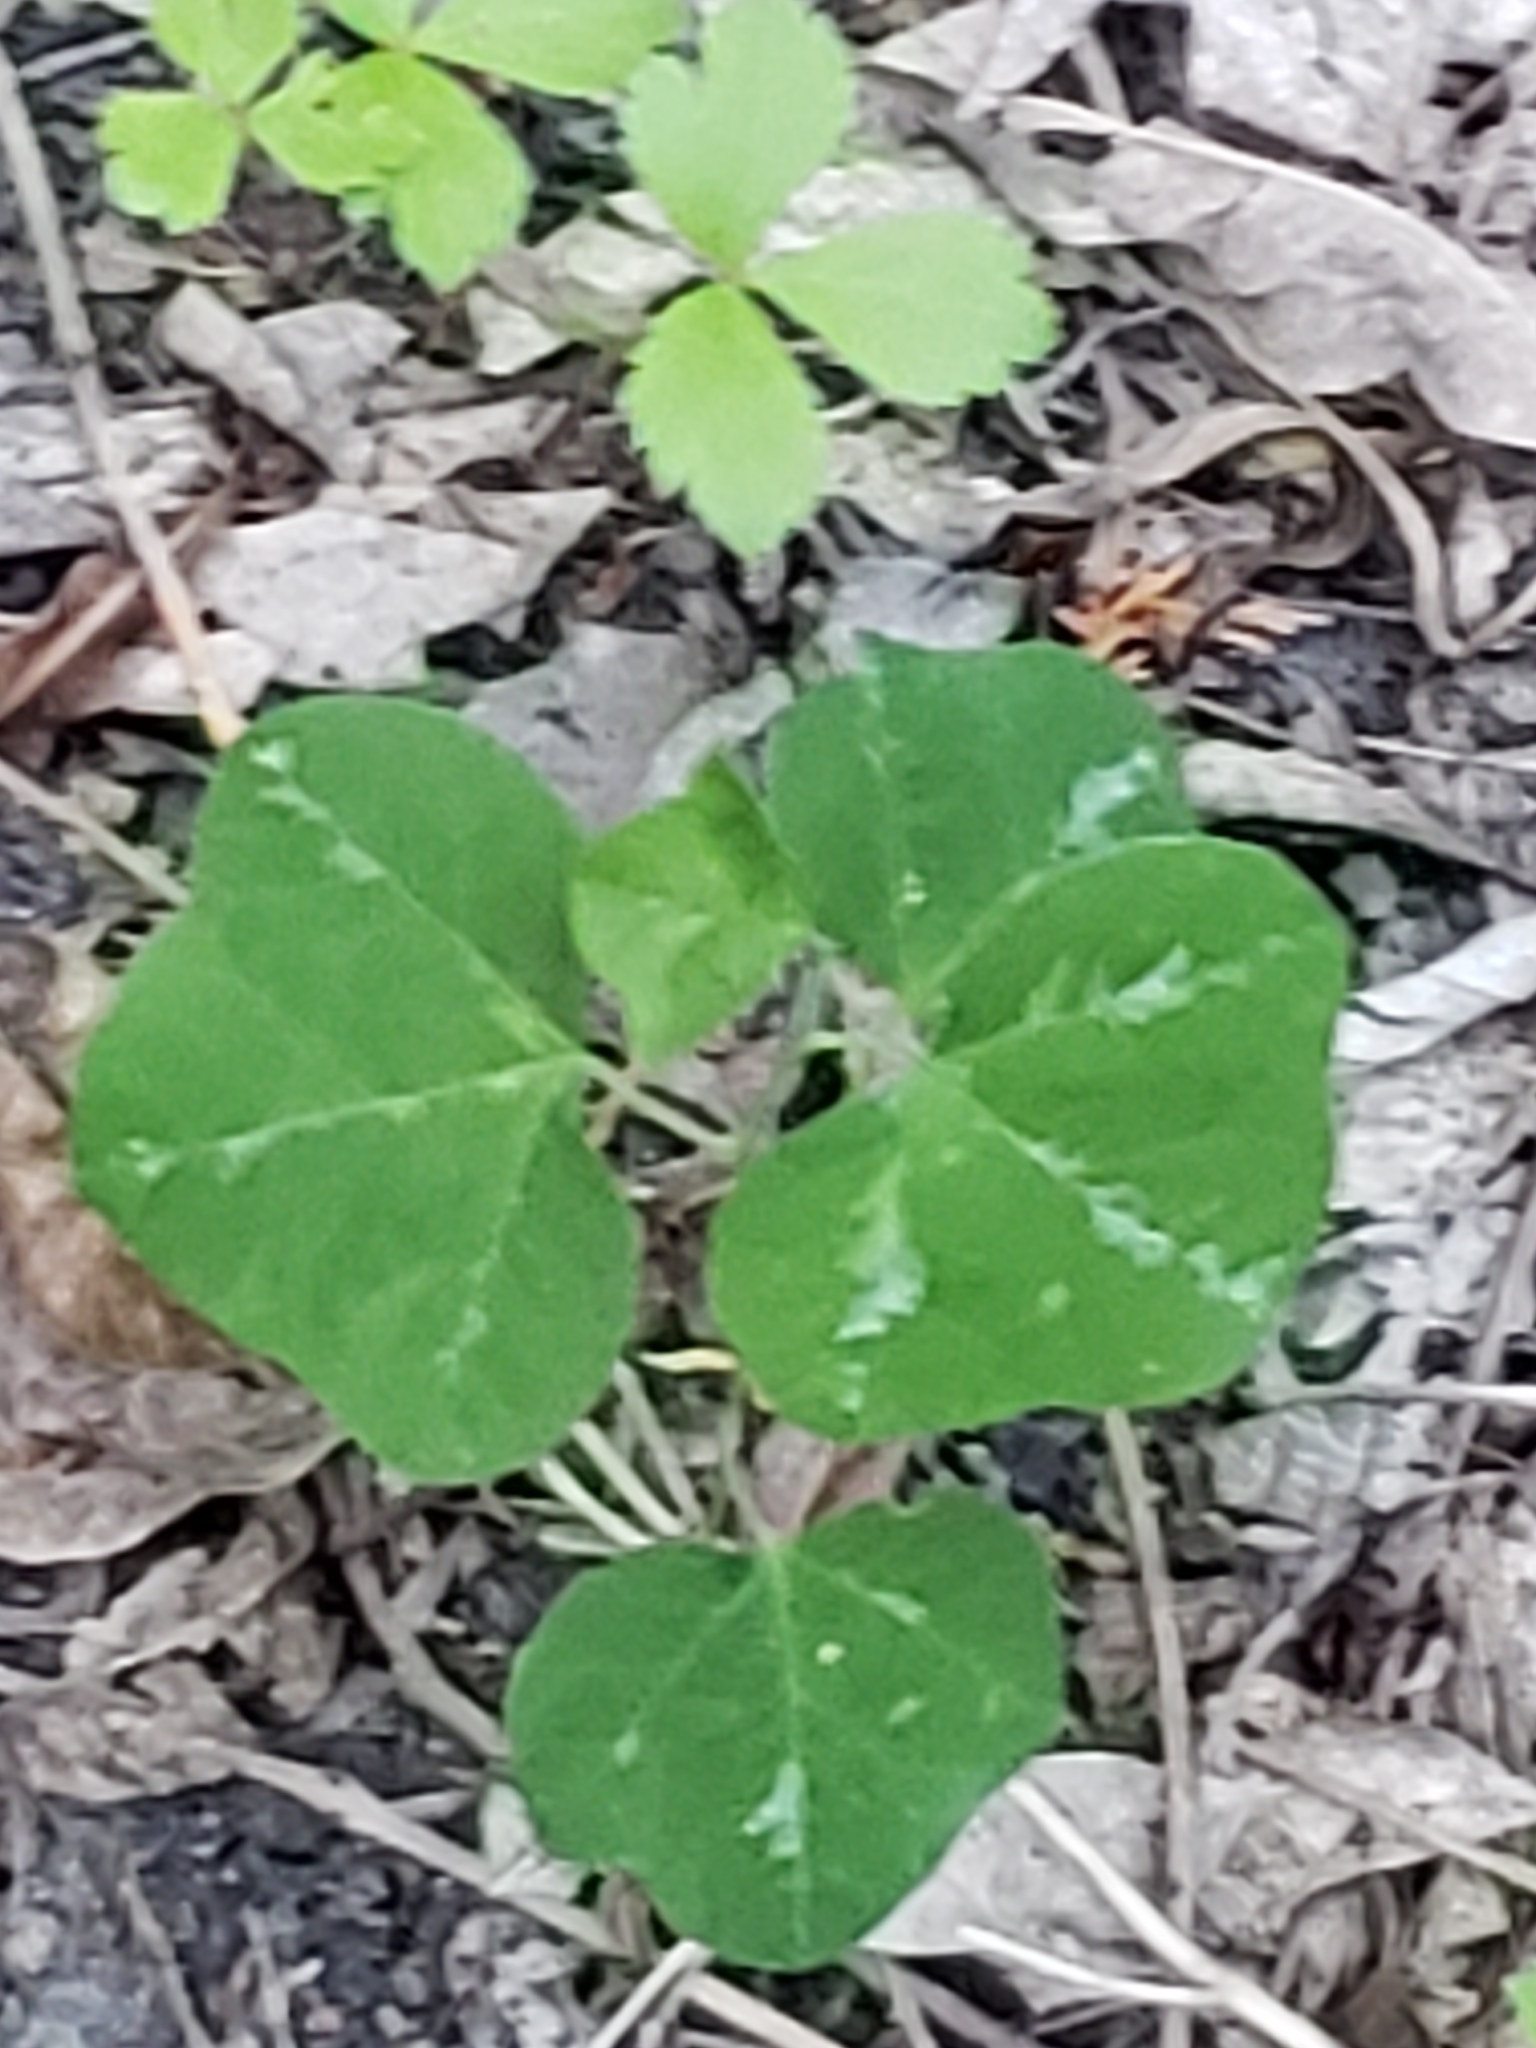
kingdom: Plantae
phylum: Tracheophyta
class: Magnoliopsida
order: Malpighiales
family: Passifloraceae
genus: Passiflora
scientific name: Passiflora lutea
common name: Yellow passionflower
